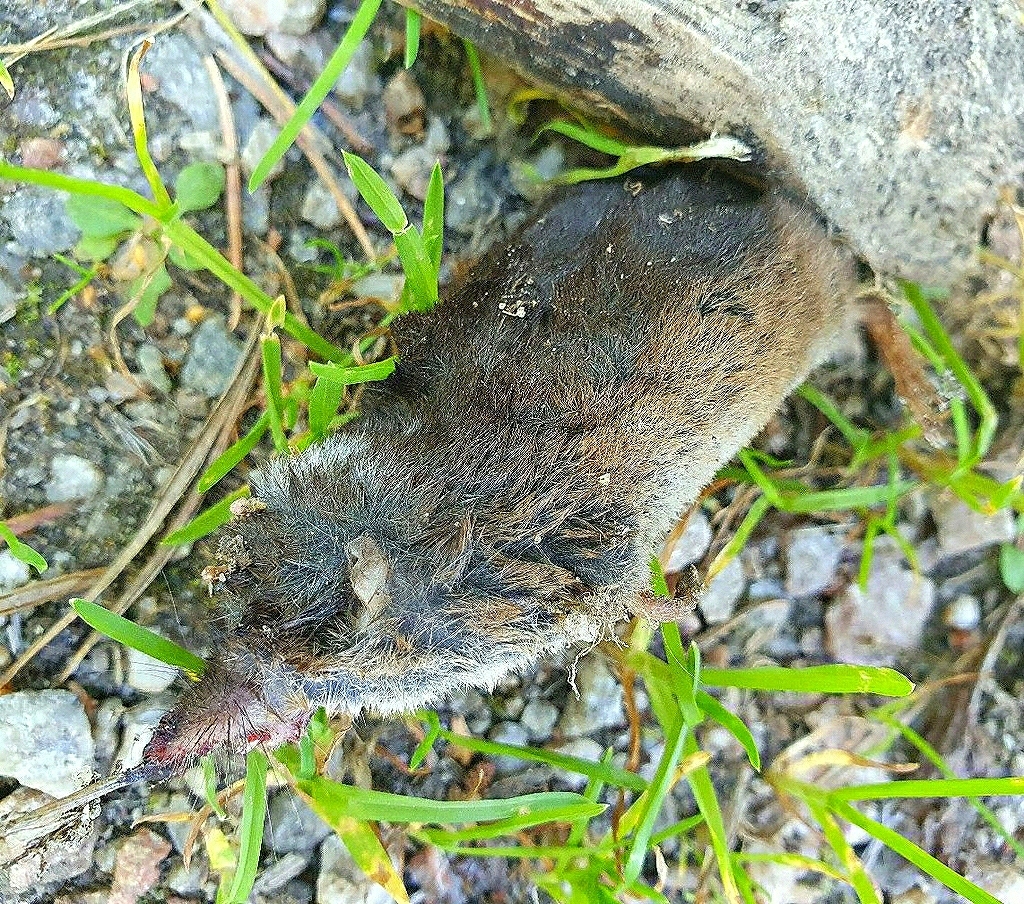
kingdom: Animalia
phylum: Chordata
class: Mammalia
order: Soricomorpha
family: Soricidae
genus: Sorex
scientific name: Sorex araneus
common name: Common shrew
